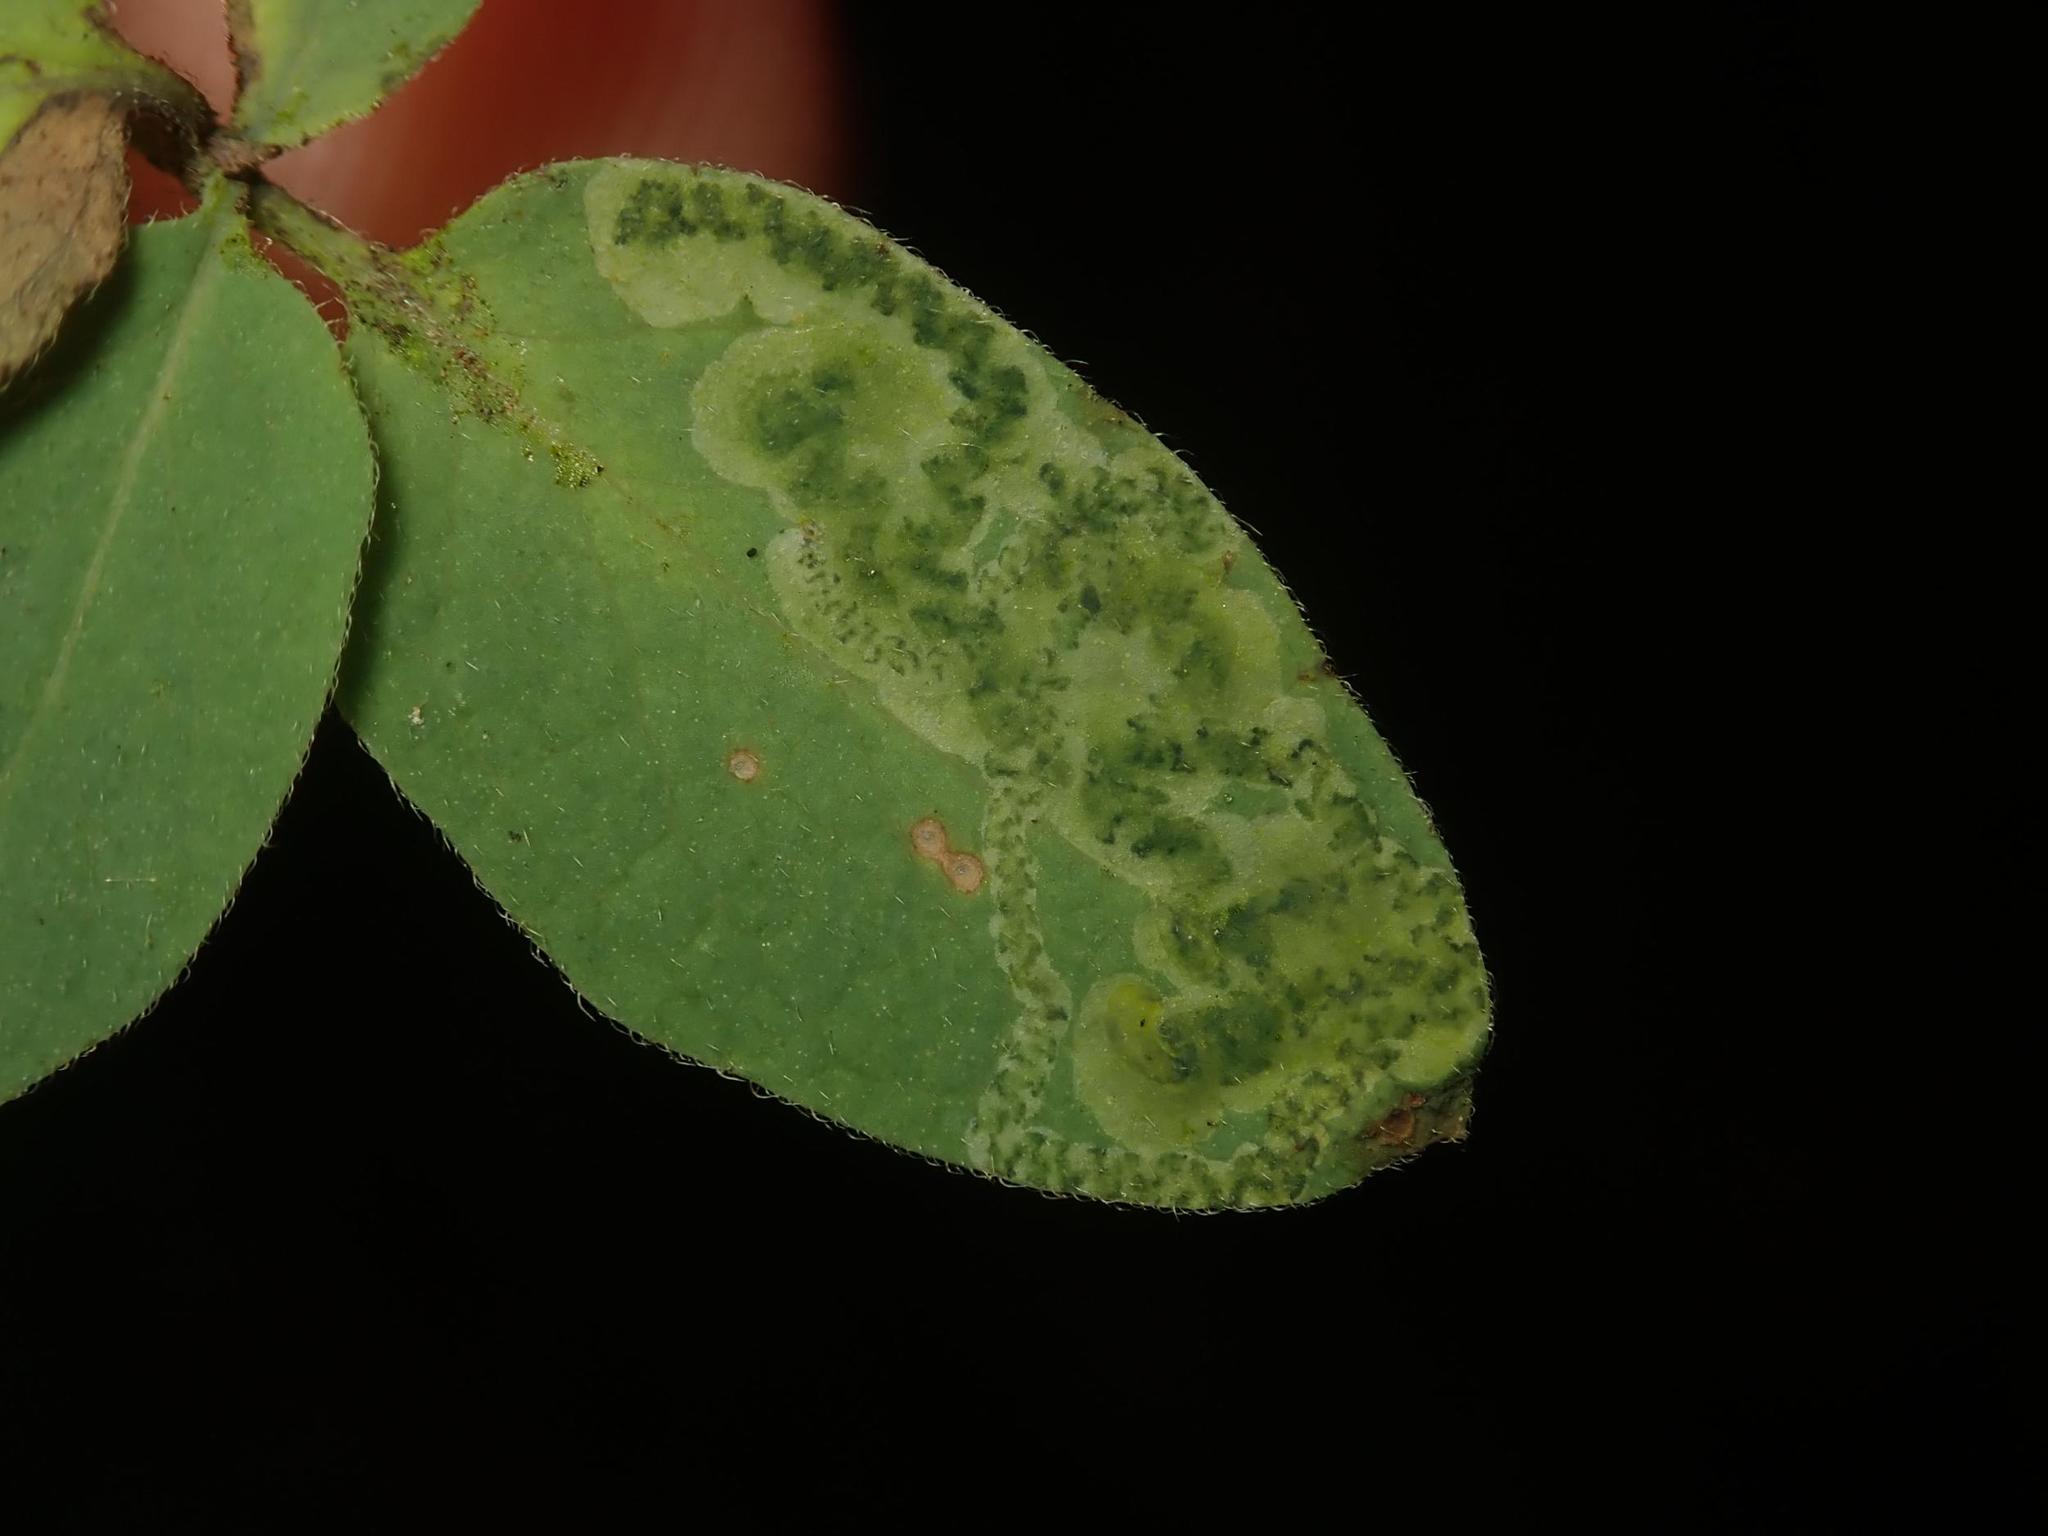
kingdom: Animalia
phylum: Arthropoda
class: Insecta
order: Diptera
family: Agromyzidae
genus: Aulagromyza
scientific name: Aulagromyza luteoscutellata
